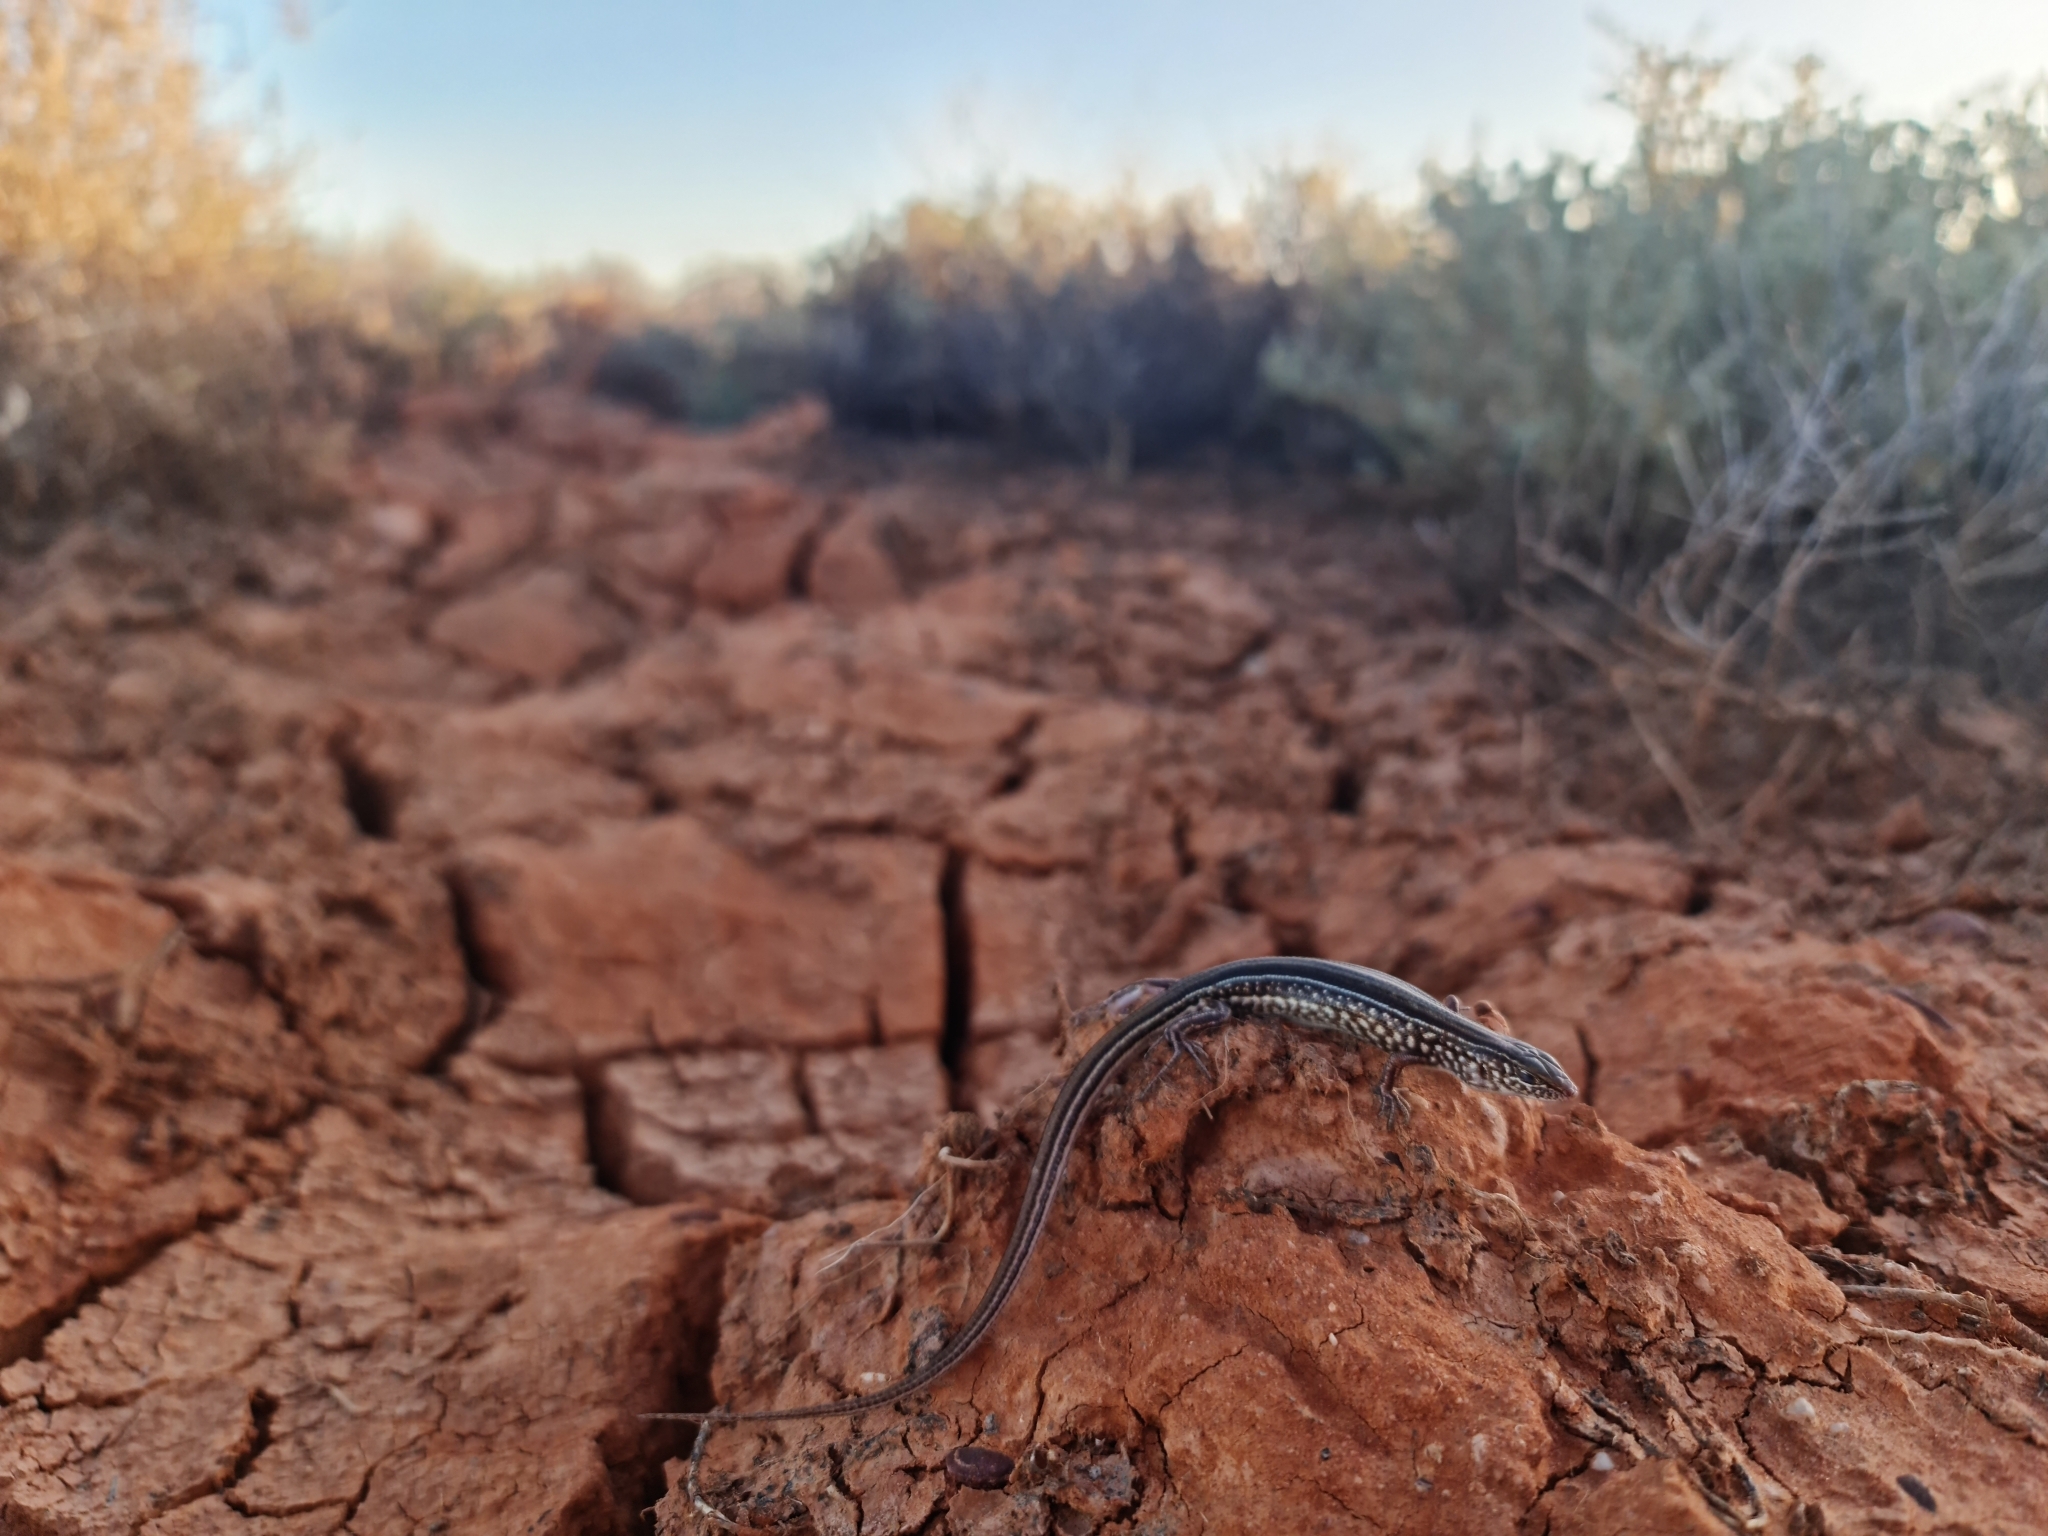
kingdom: Animalia
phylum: Chordata
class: Squamata
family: Scincidae
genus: Ctenotus
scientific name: Ctenotus leonhardii
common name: Leonhardi's ctenotus
